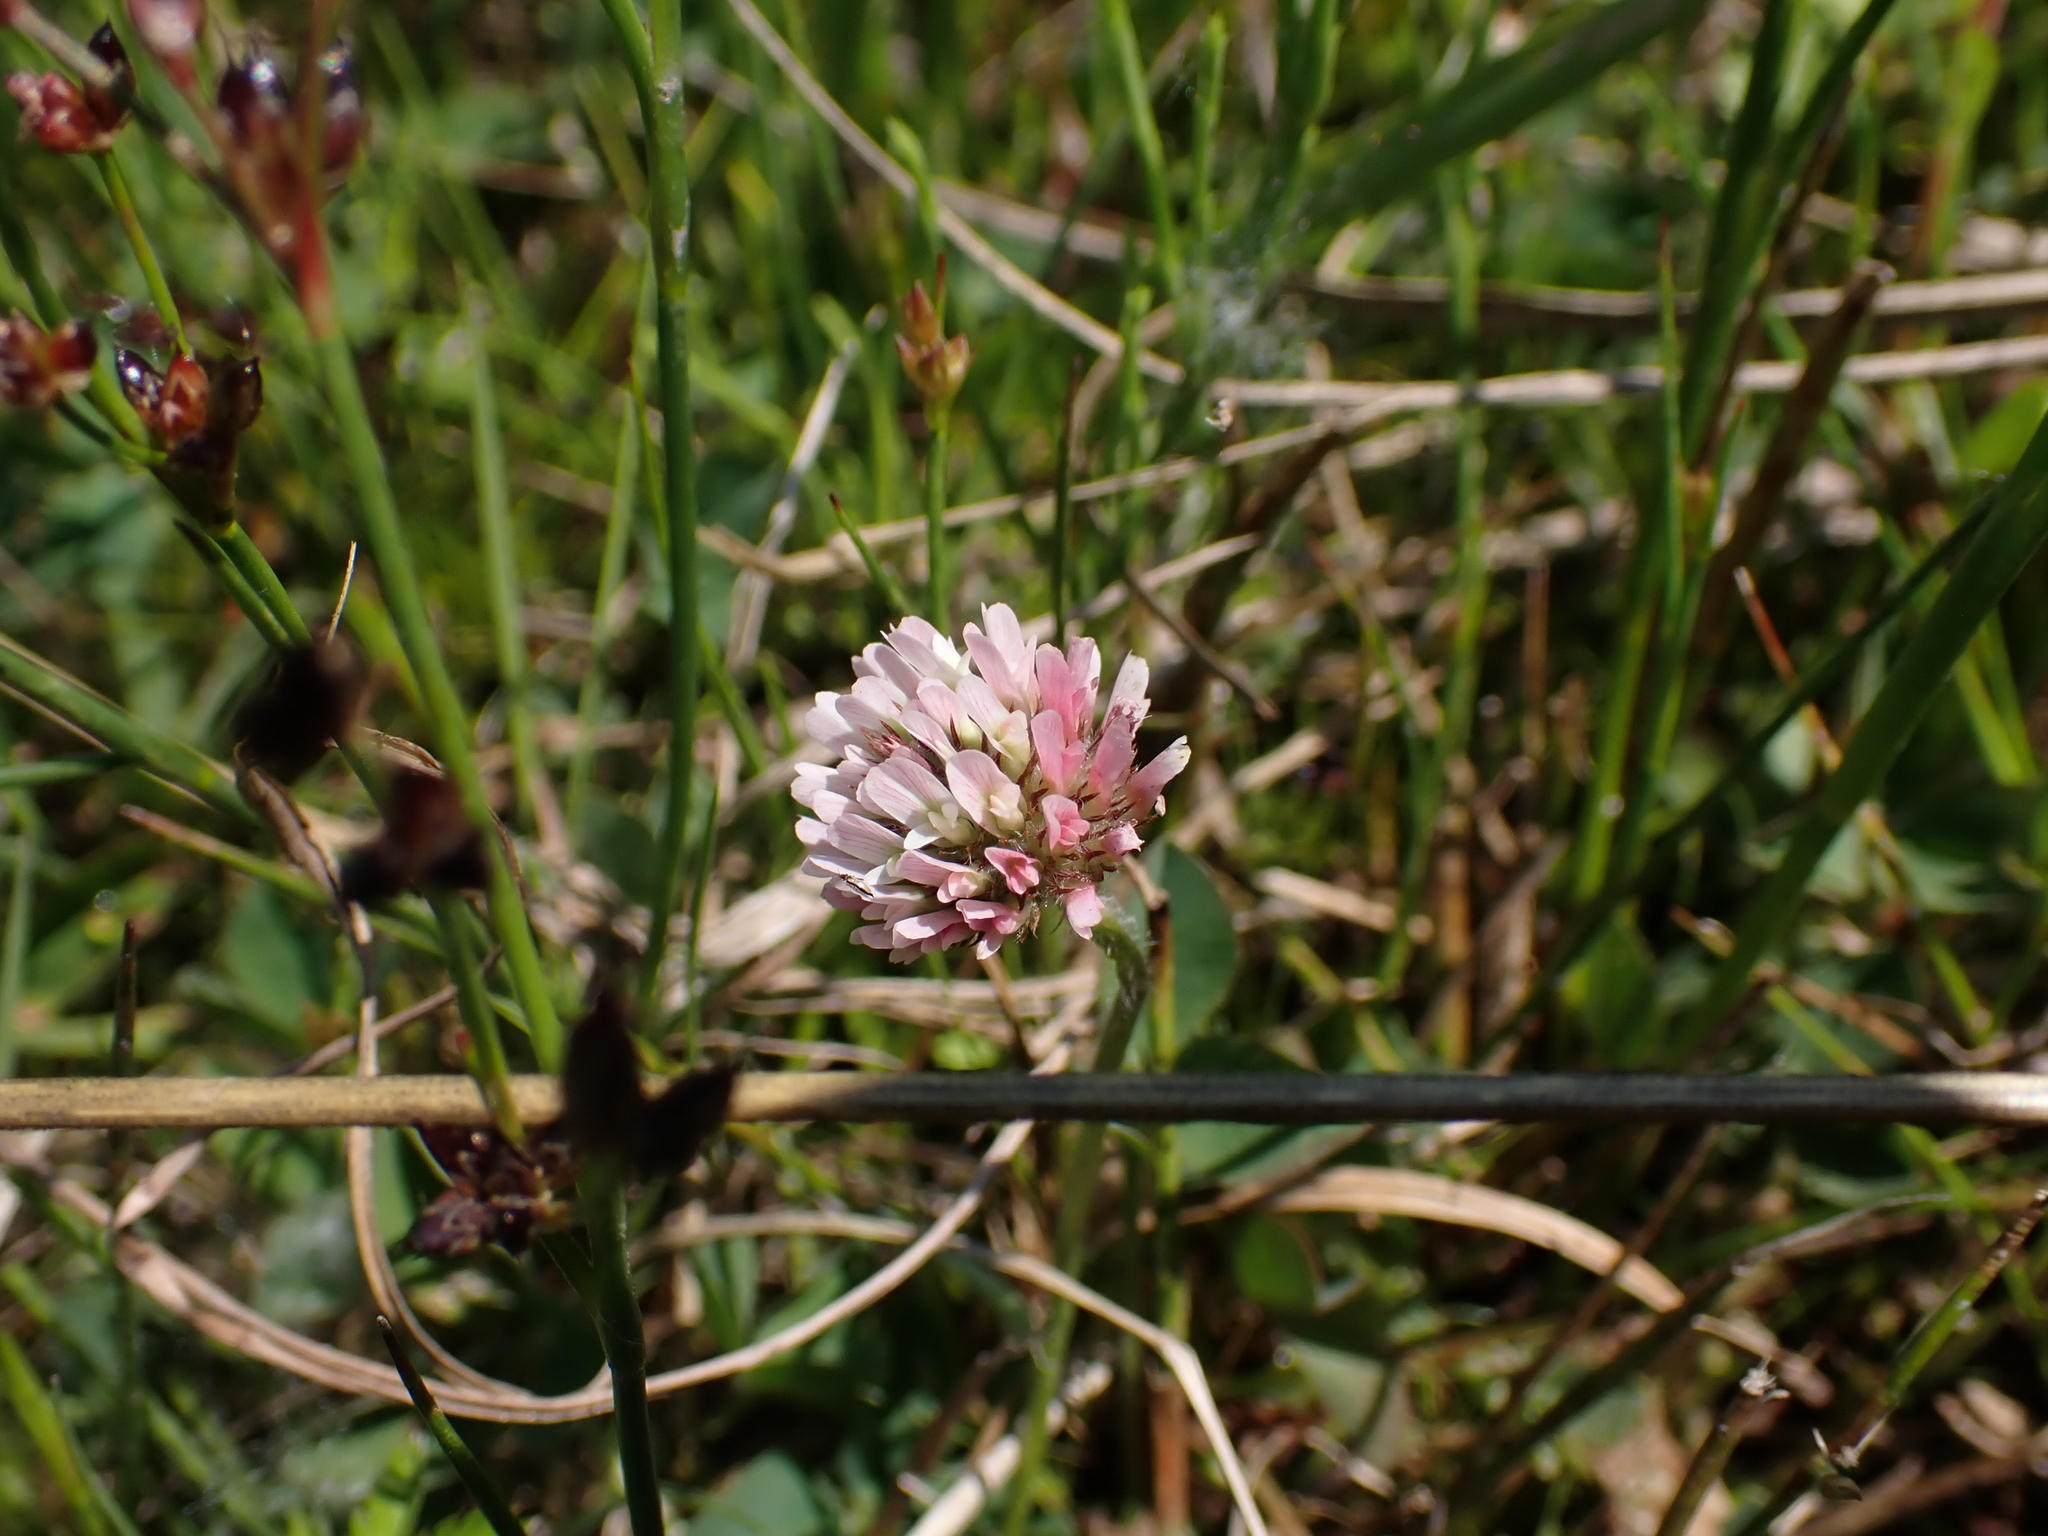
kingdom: Plantae
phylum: Tracheophyta
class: Magnoliopsida
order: Fabales
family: Fabaceae
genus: Trifolium
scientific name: Trifolium fragiferum
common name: Strawberry clover
